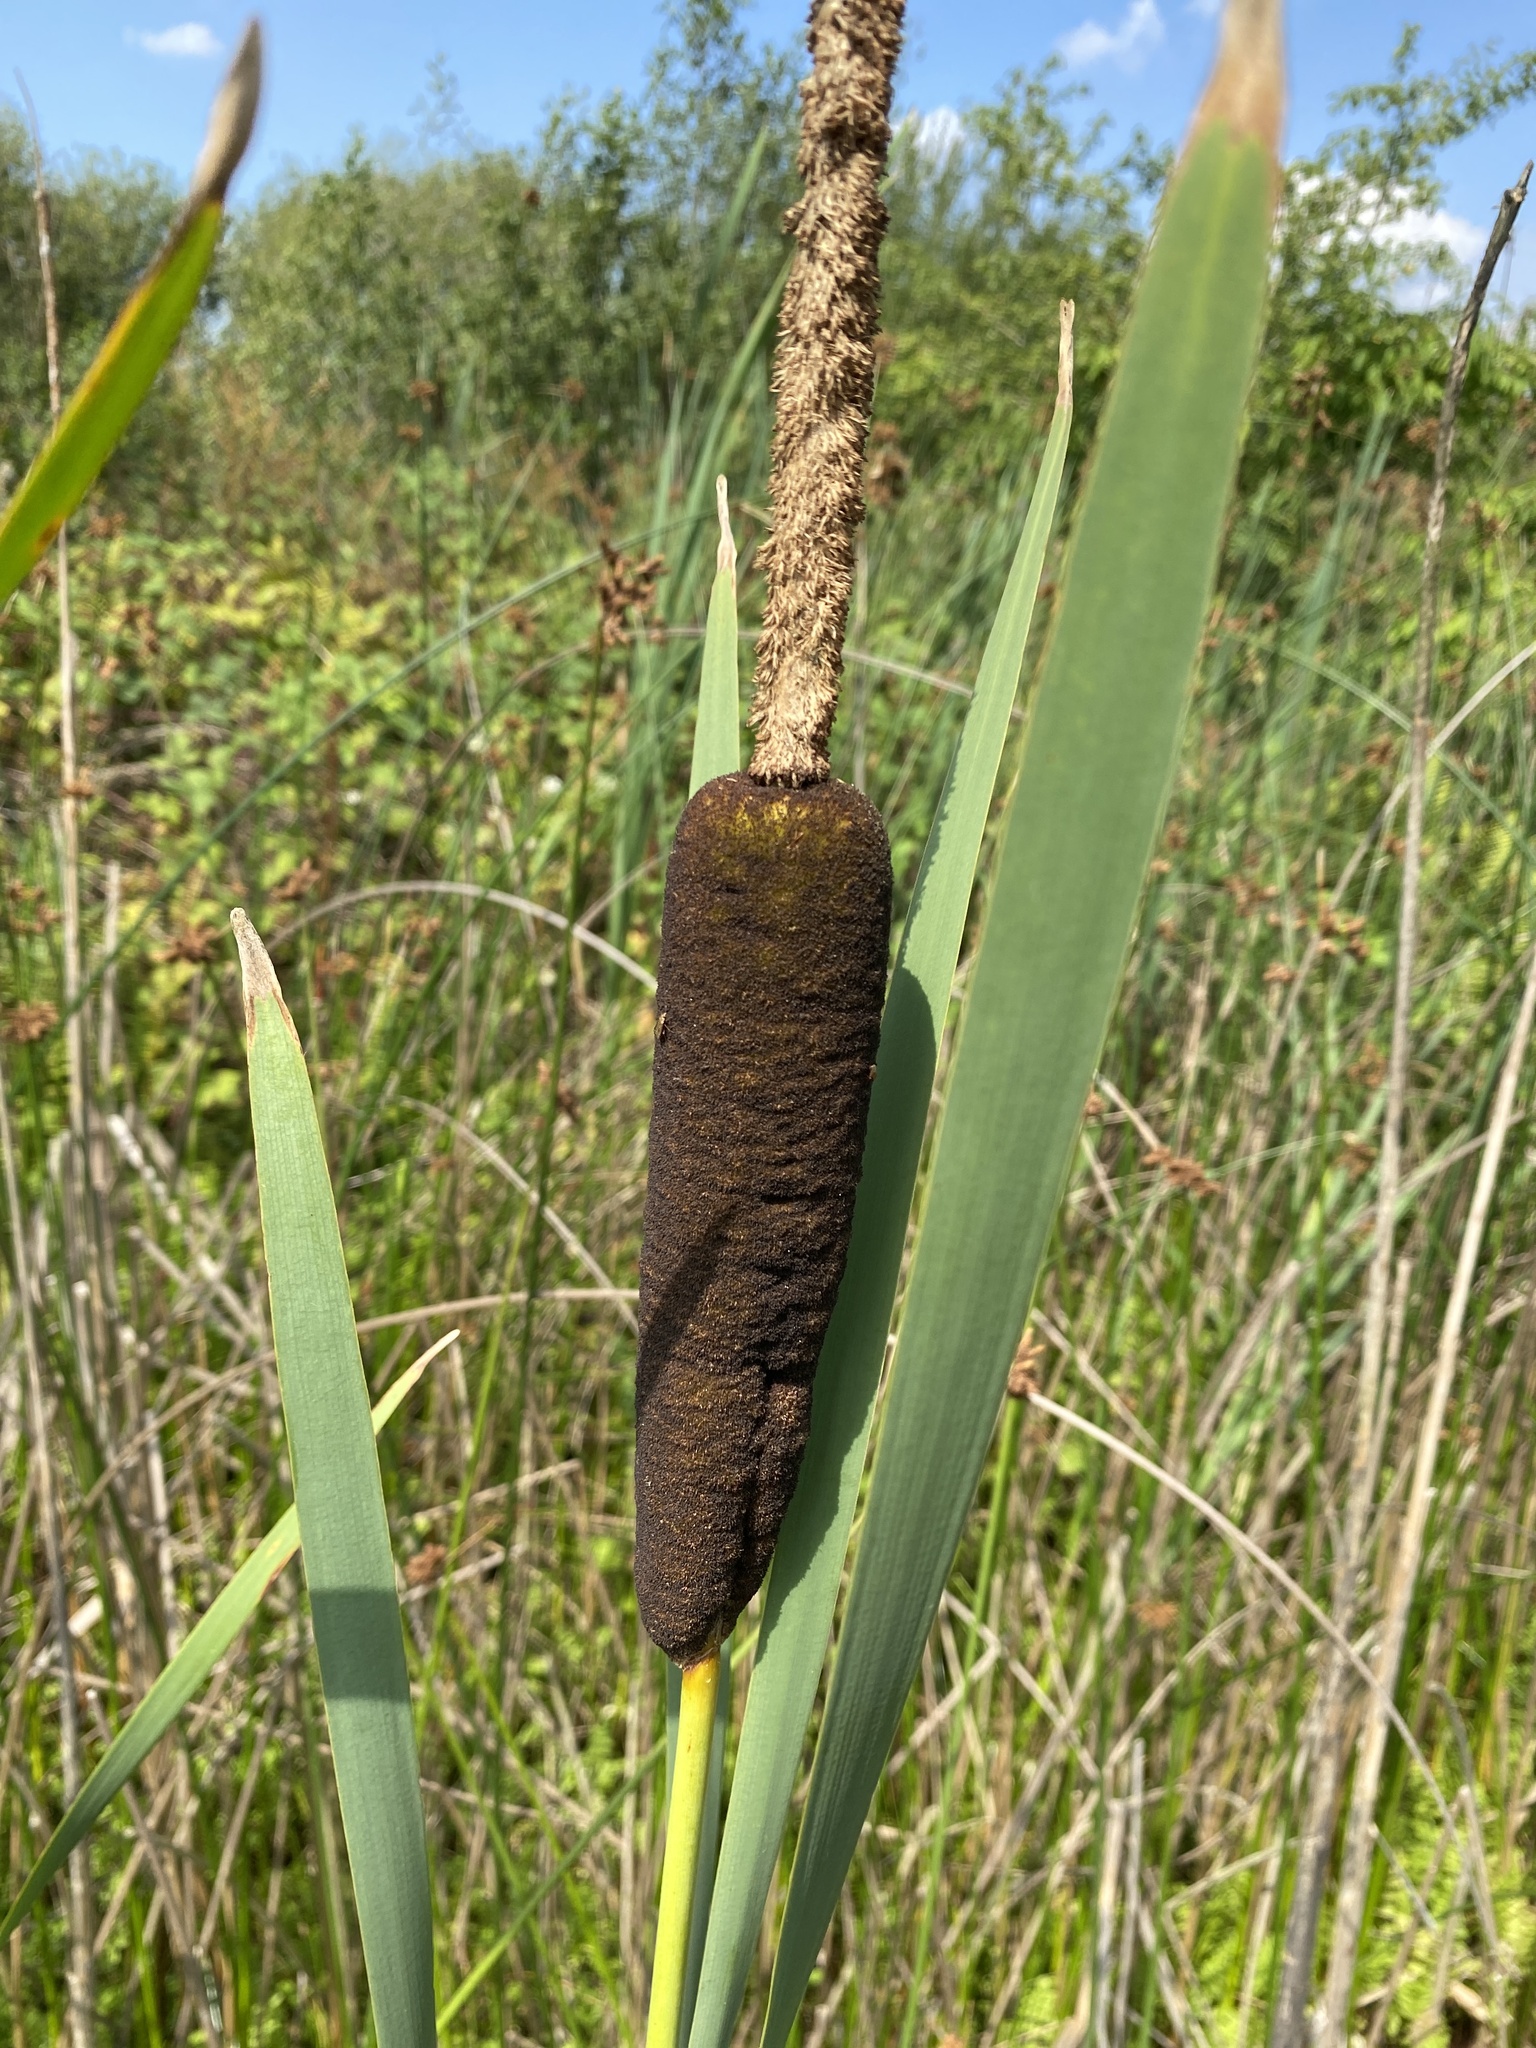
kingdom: Plantae
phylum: Tracheophyta
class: Liliopsida
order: Poales
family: Typhaceae
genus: Typha
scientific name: Typha latifolia
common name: Broadleaf cattail
